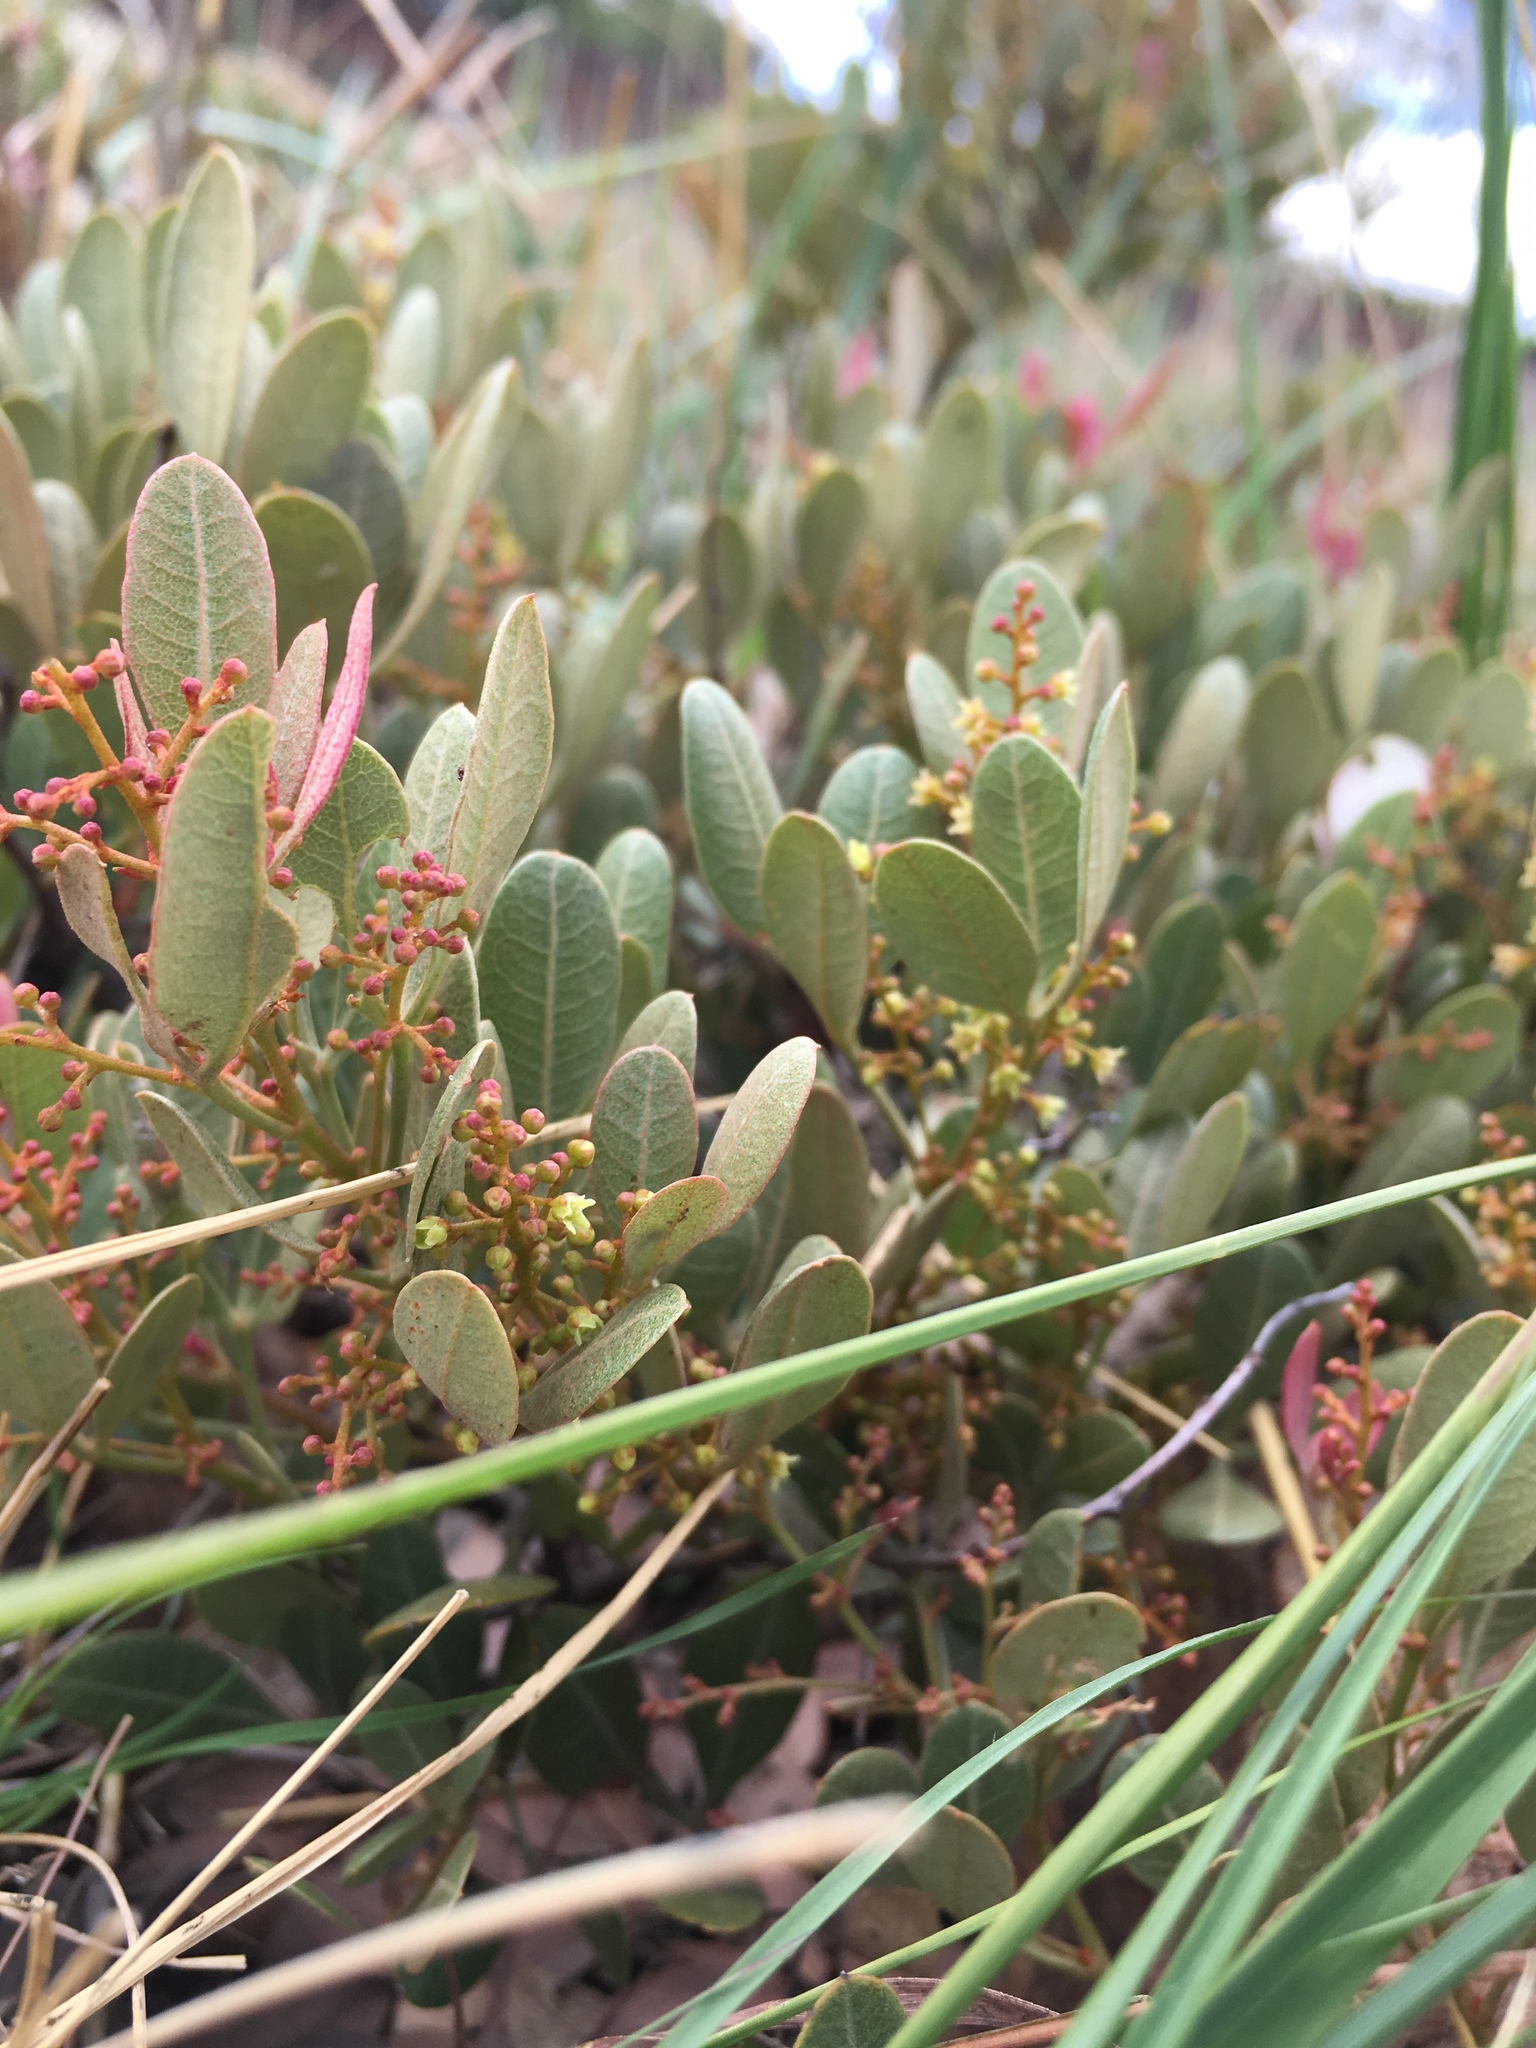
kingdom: Plantae
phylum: Tracheophyta
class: Magnoliopsida
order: Sapindales
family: Anacardiaceae
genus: Searsia
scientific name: Searsia magalismontana
